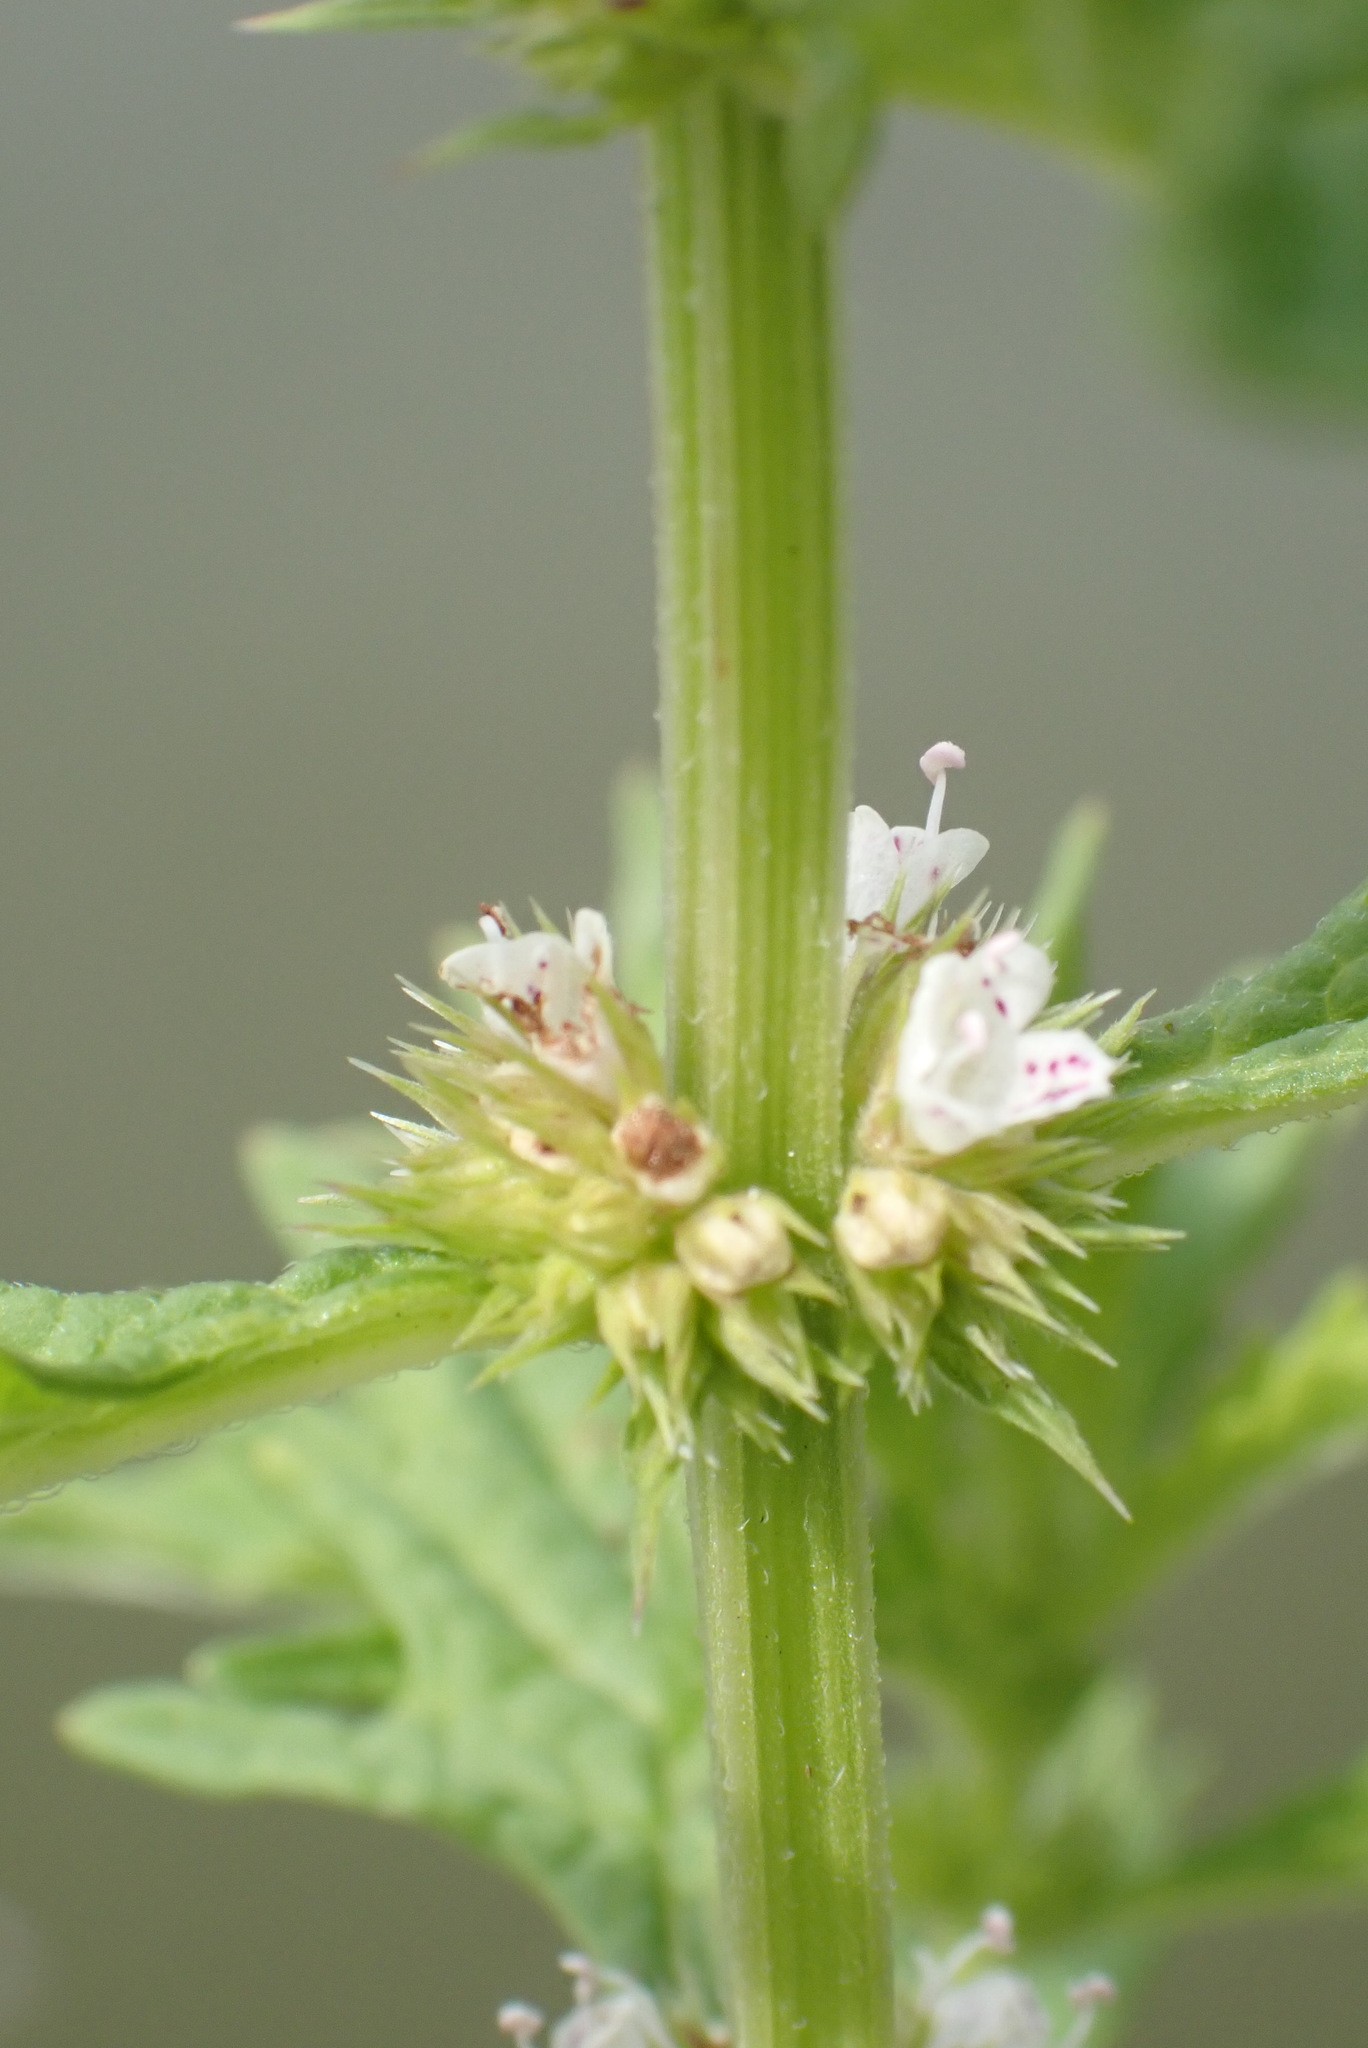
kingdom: Plantae
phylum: Tracheophyta
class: Magnoliopsida
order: Lamiales
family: Lamiaceae
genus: Lycopus
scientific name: Lycopus europaeus
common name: European bugleweed
